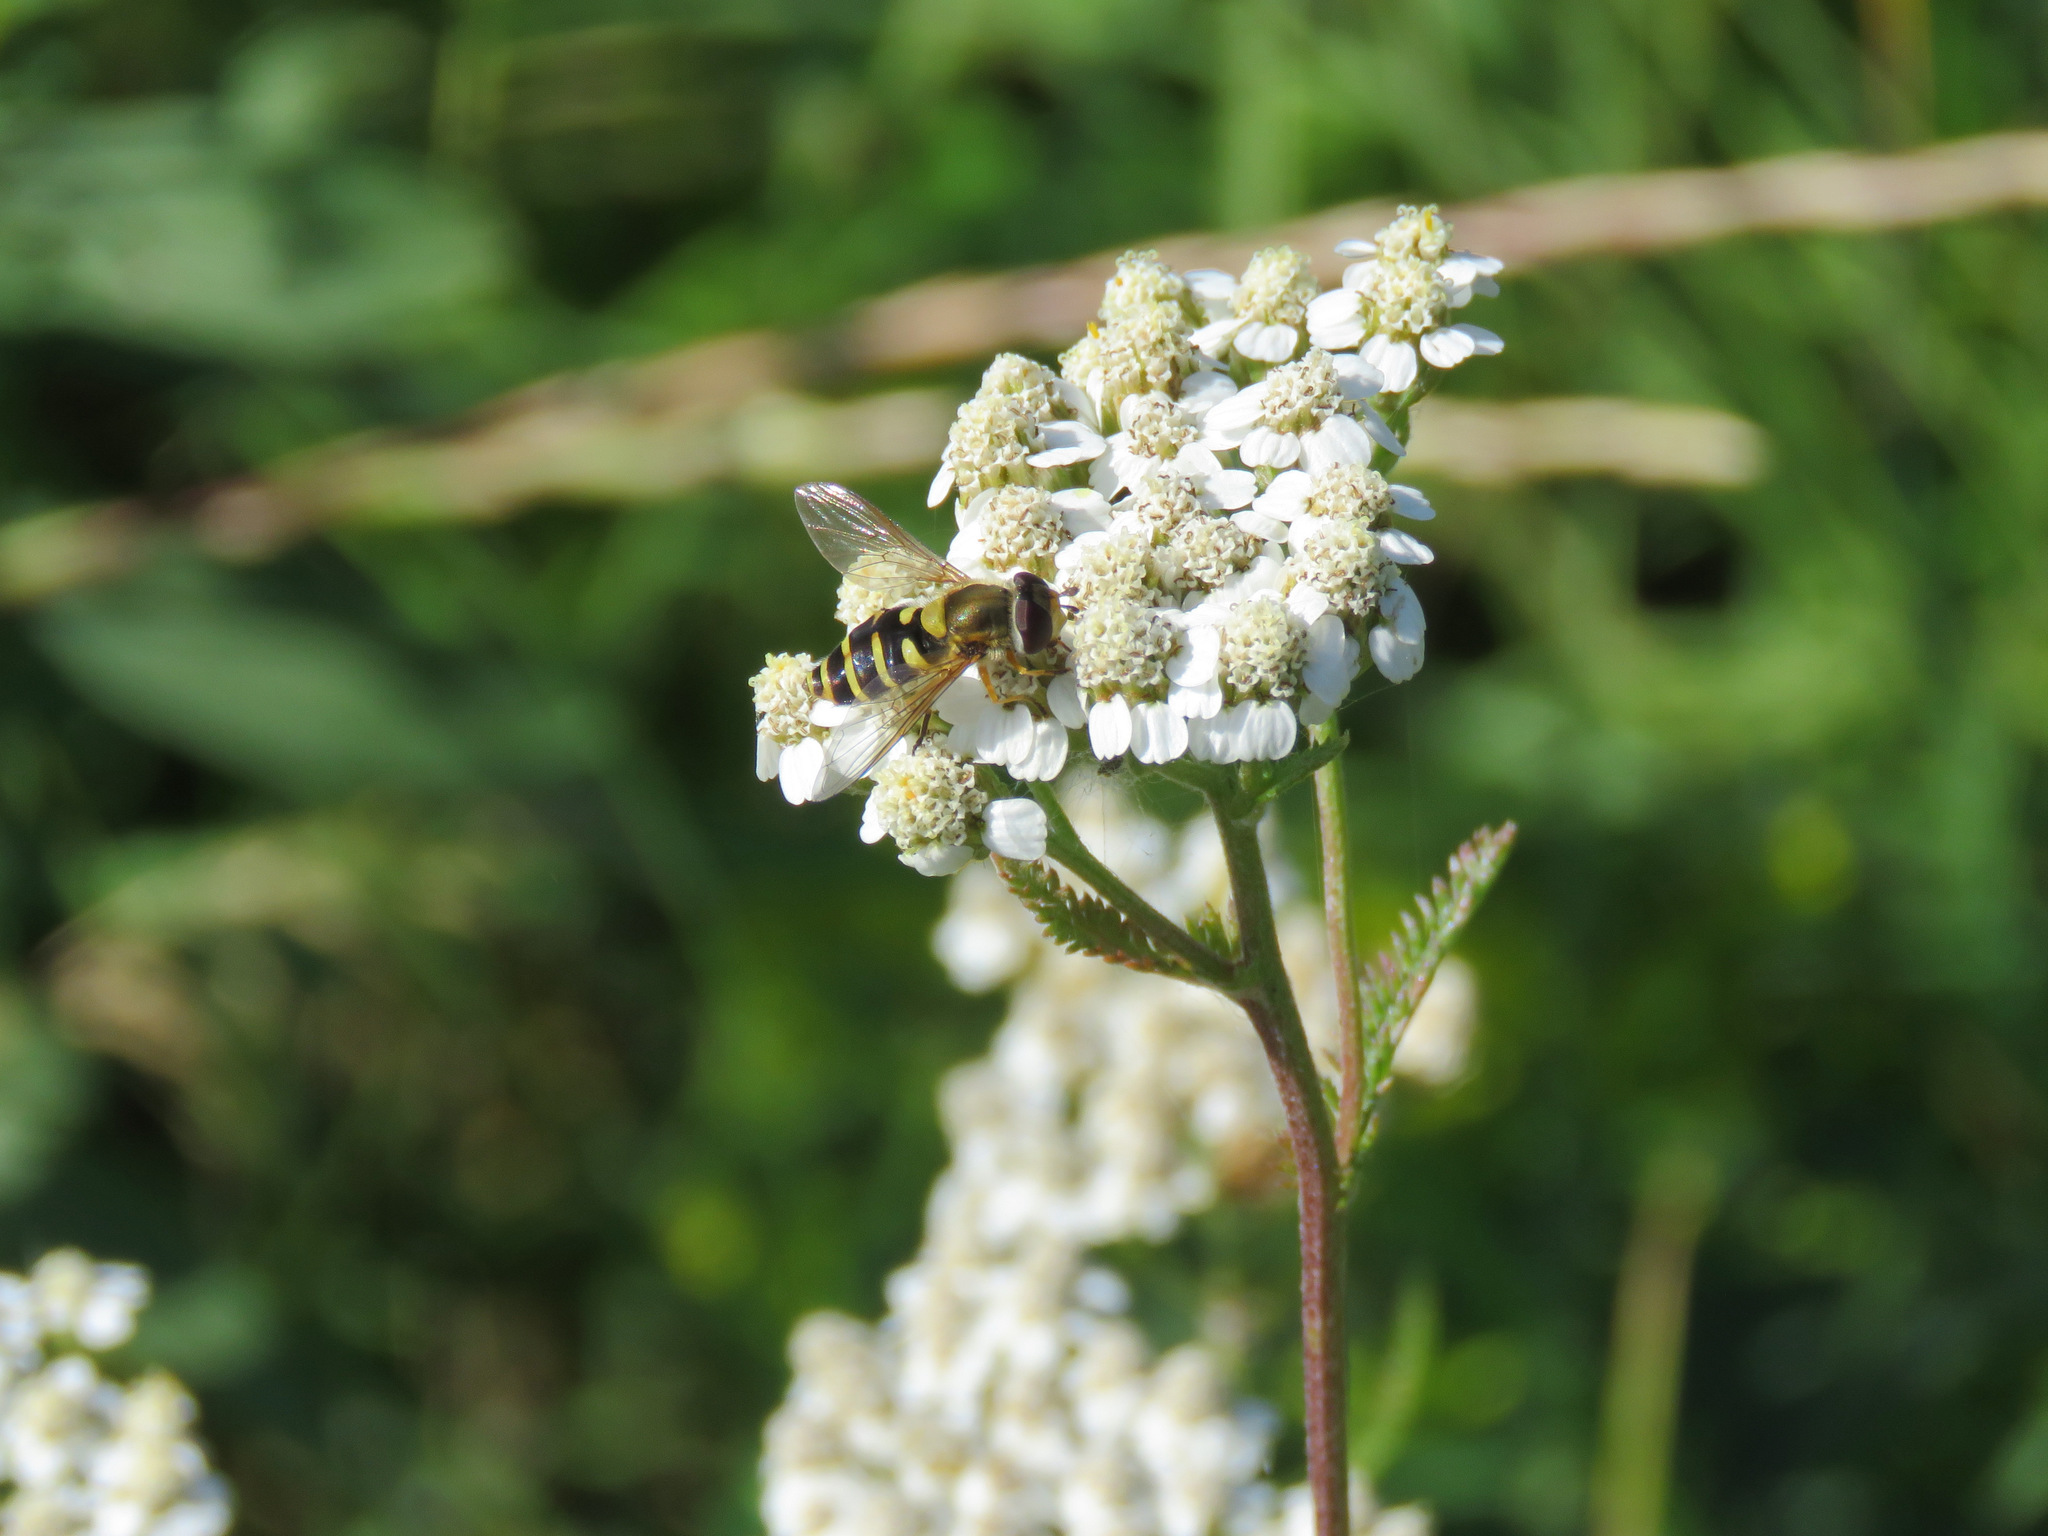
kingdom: Animalia
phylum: Arthropoda
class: Insecta
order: Diptera
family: Syrphidae
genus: Syrphus
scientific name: Syrphus ribesii
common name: Common flower fly
